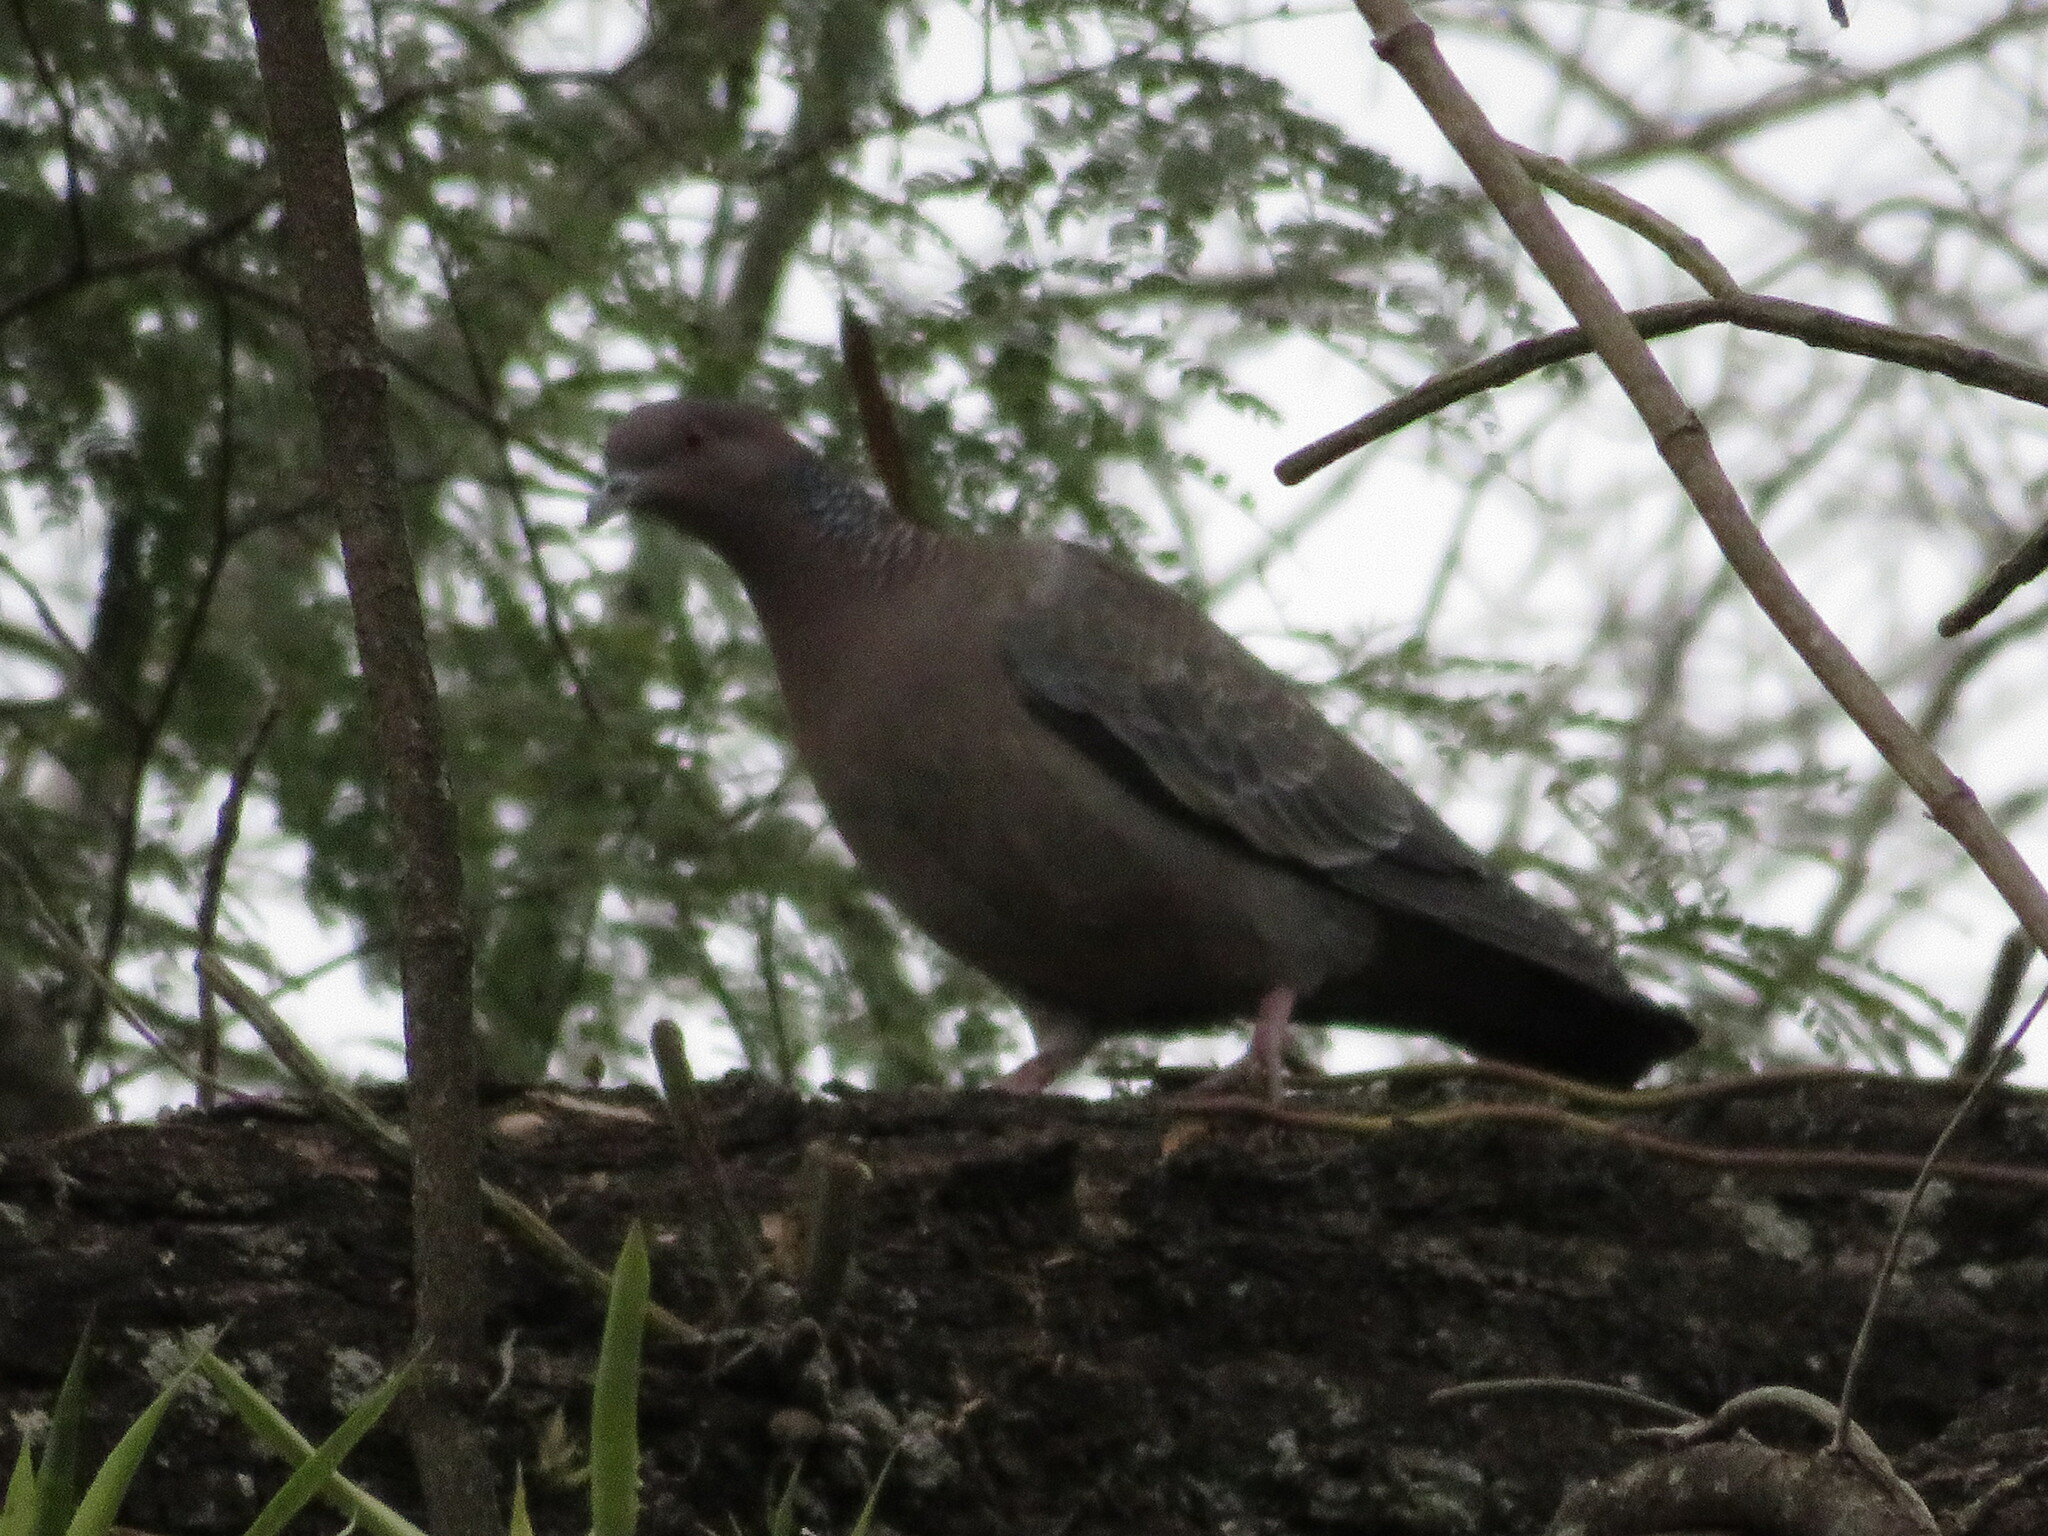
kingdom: Animalia
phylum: Chordata
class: Aves
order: Columbiformes
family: Columbidae
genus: Patagioenas
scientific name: Patagioenas picazuro
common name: Picazuro pigeon
